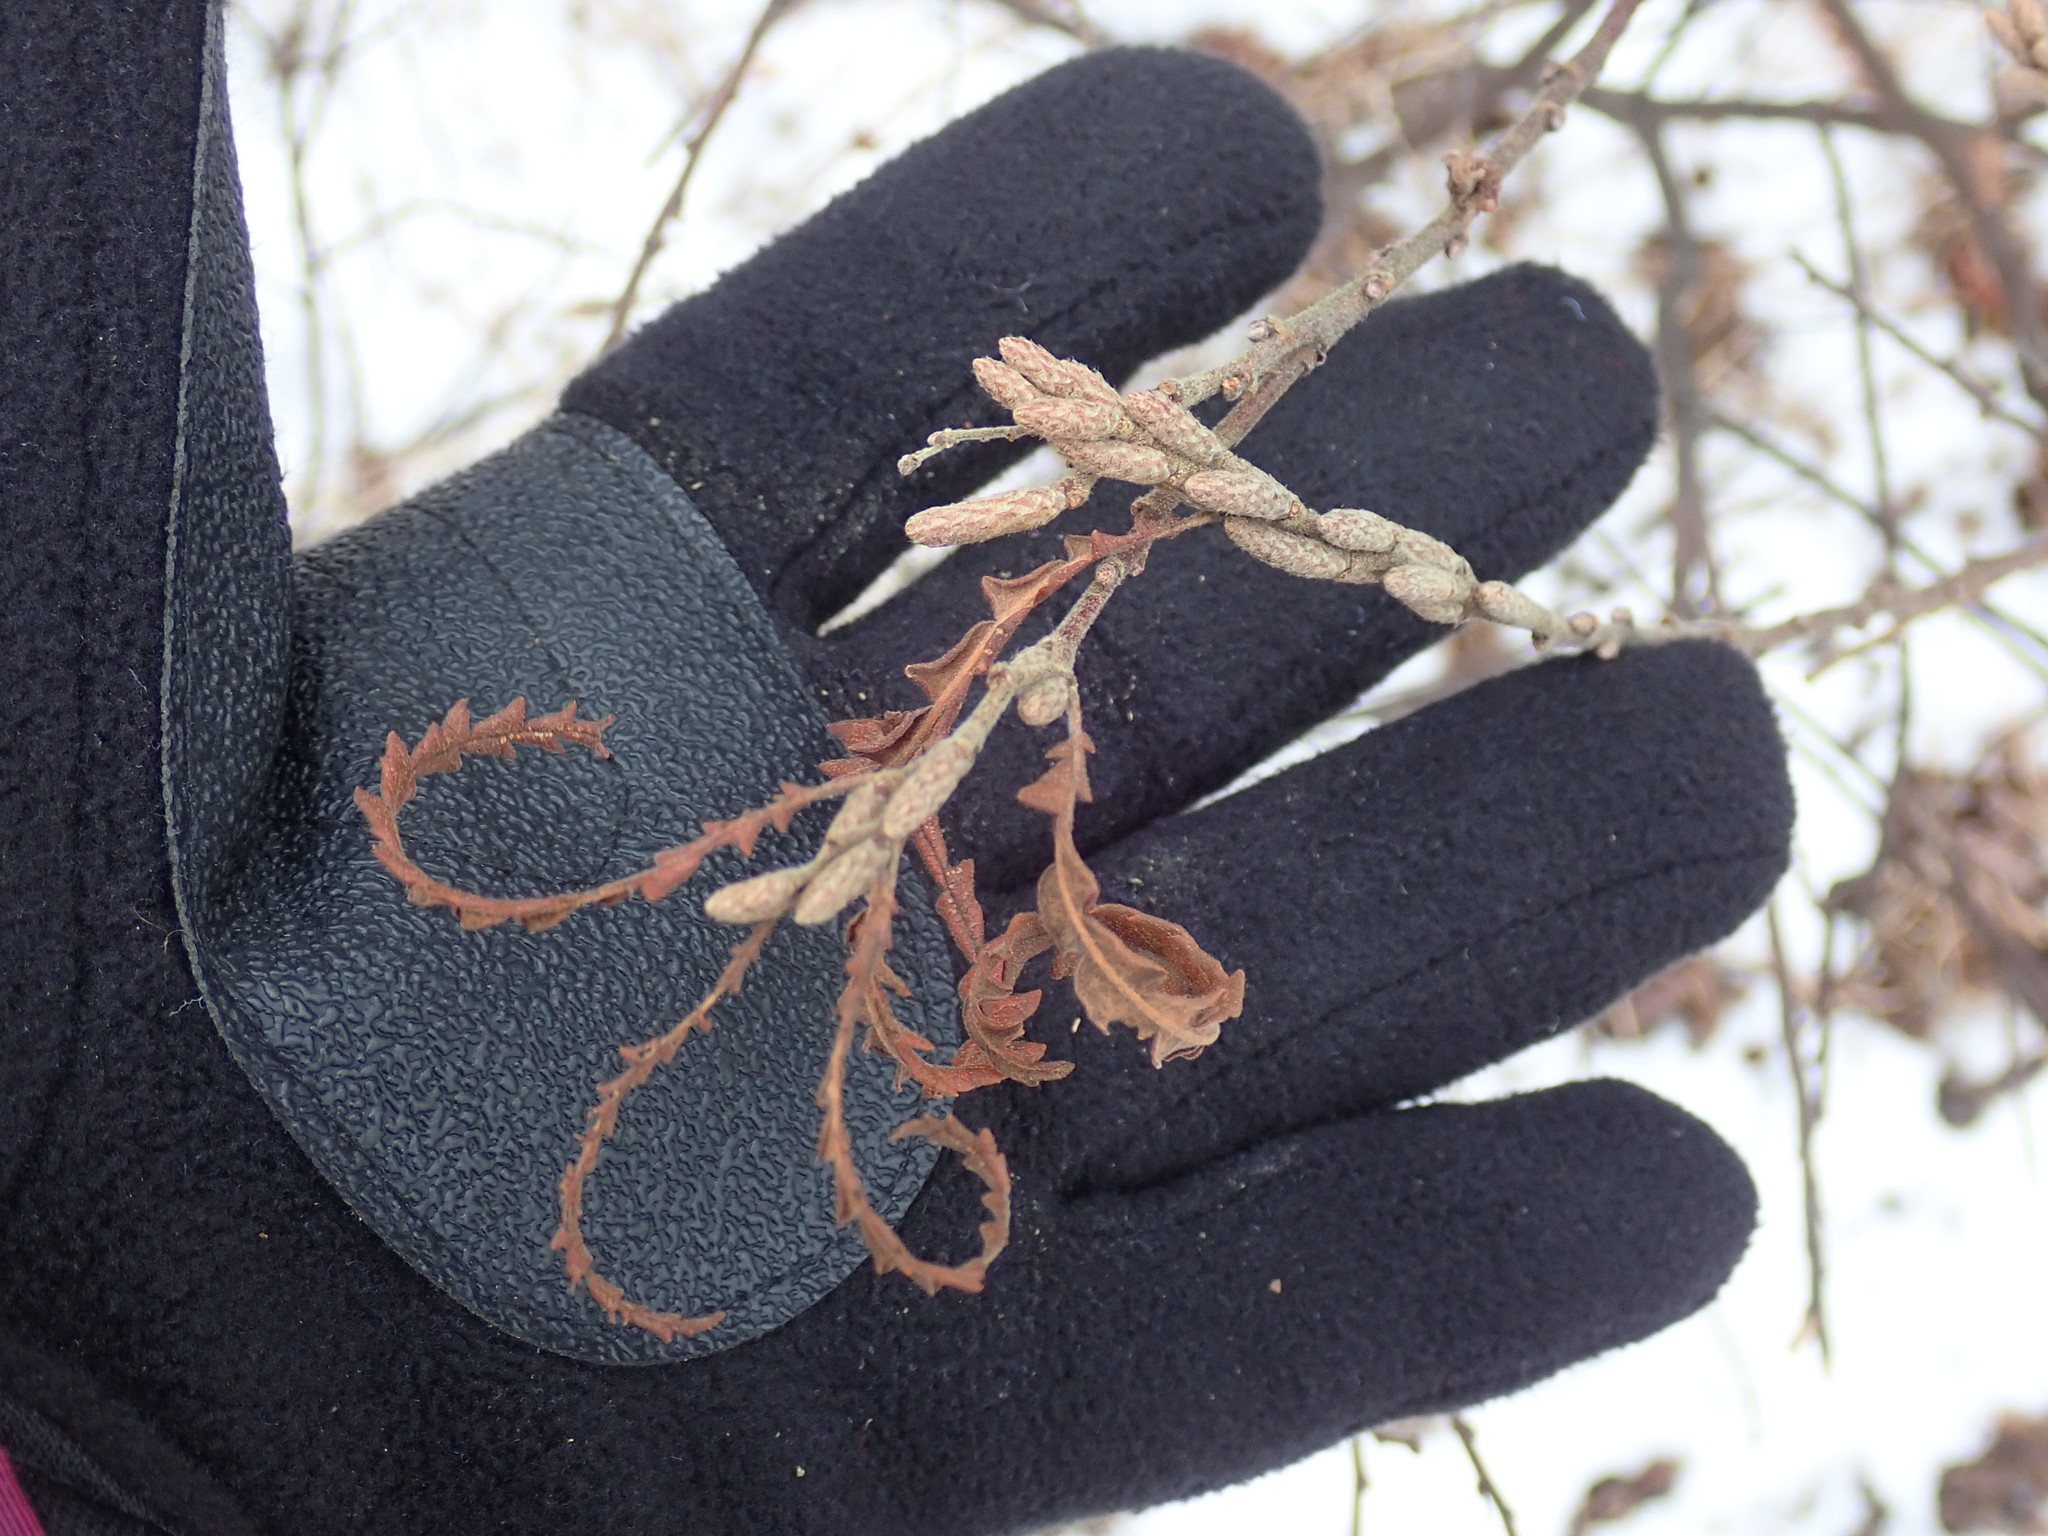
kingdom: Plantae
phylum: Tracheophyta
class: Magnoliopsida
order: Fagales
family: Myricaceae
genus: Comptonia
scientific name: Comptonia peregrina
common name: Sweet-fern
